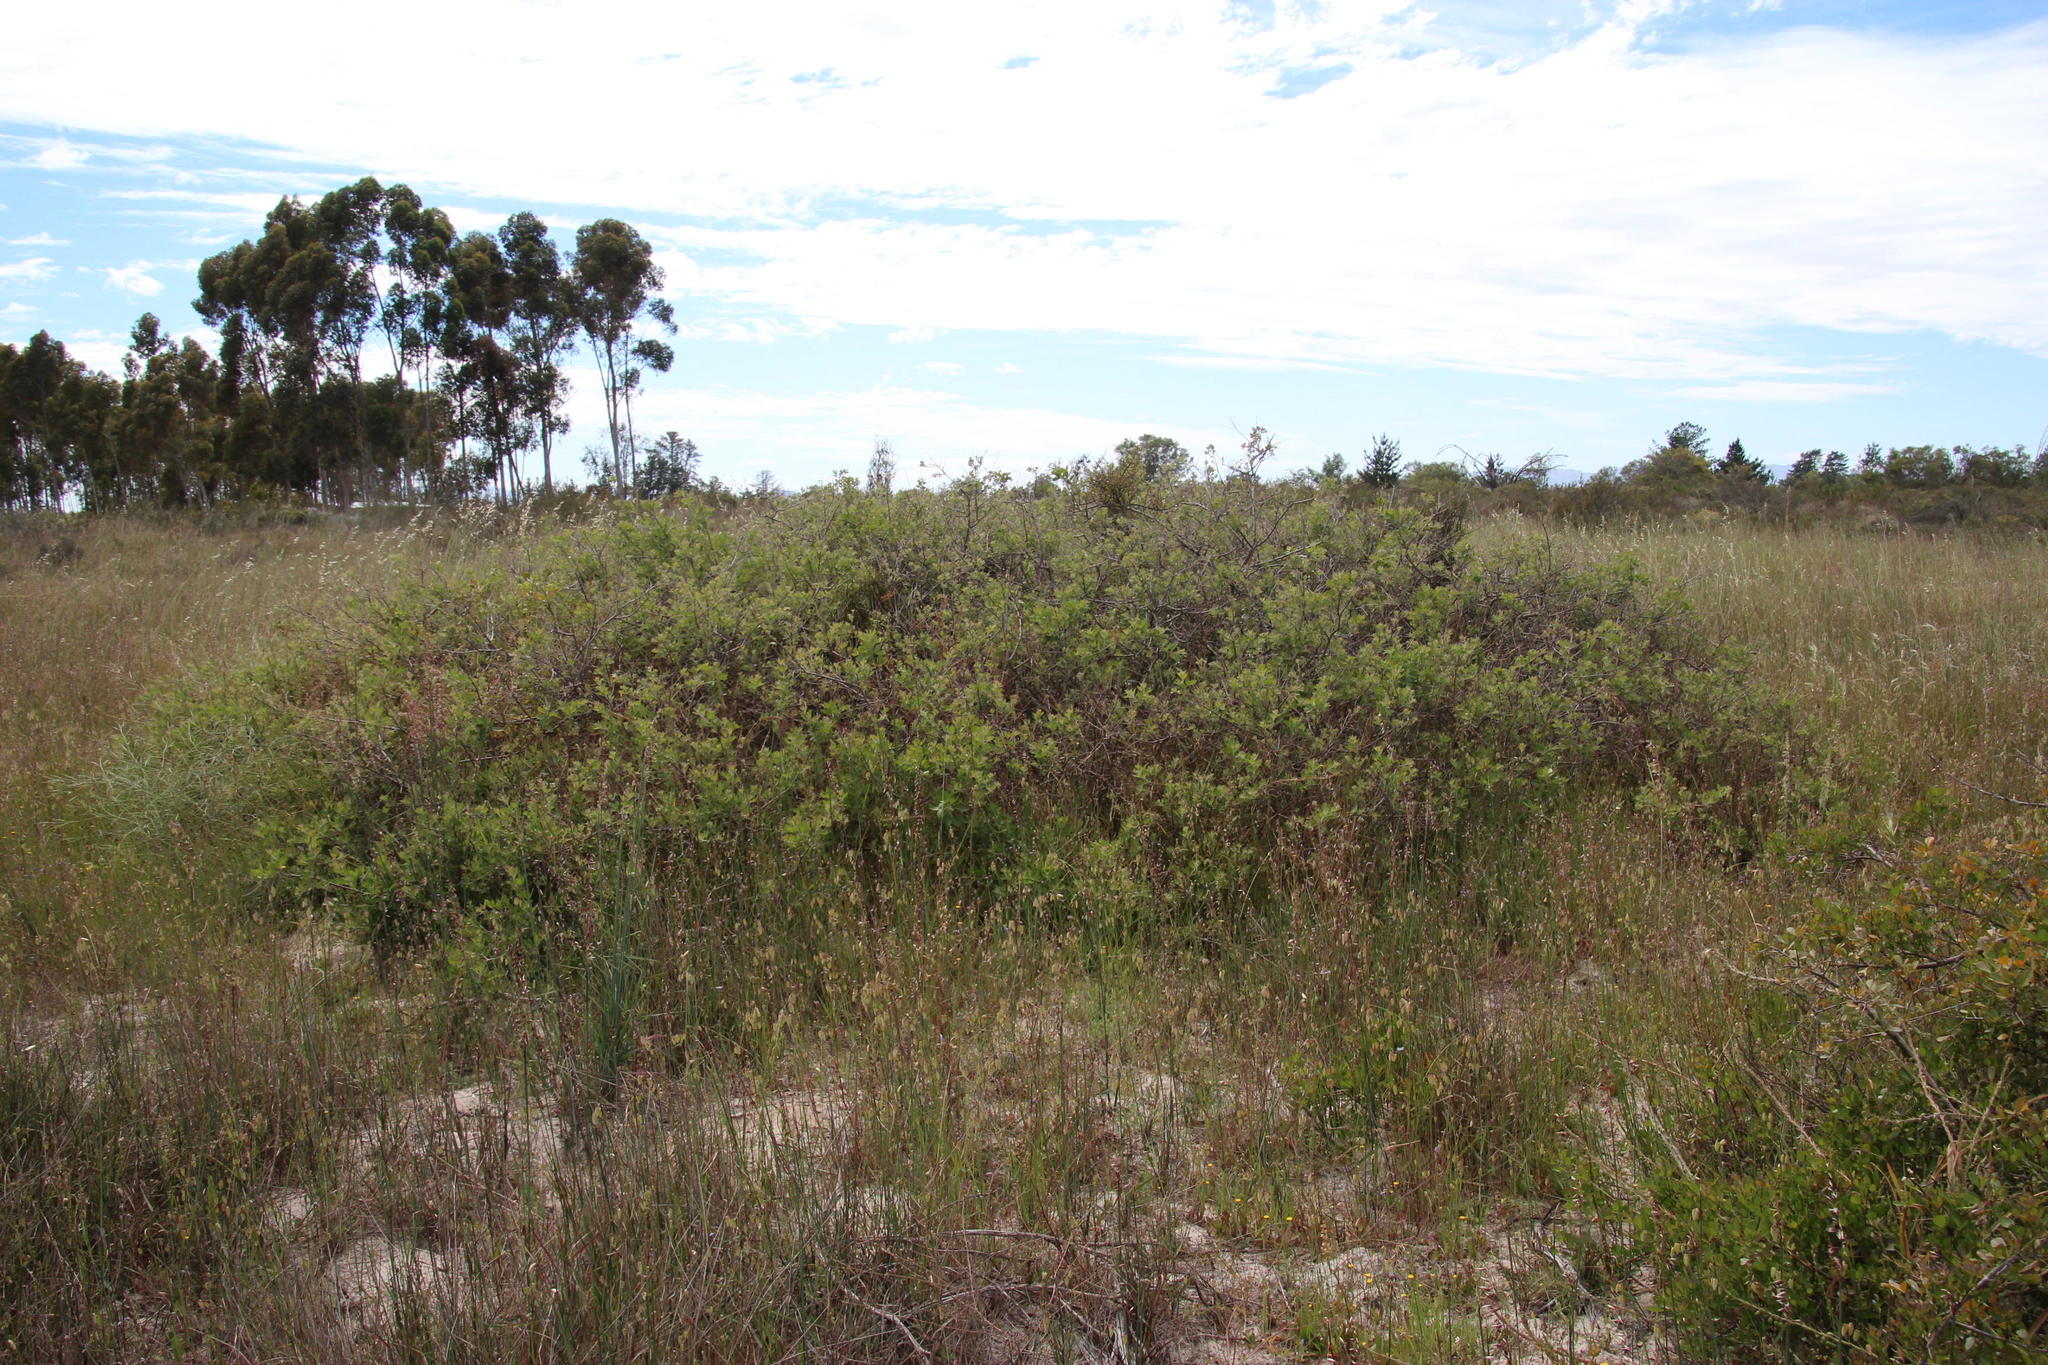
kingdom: Plantae
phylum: Tracheophyta
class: Magnoliopsida
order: Sapindales
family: Anacardiaceae
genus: Searsia
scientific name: Searsia laevigata
